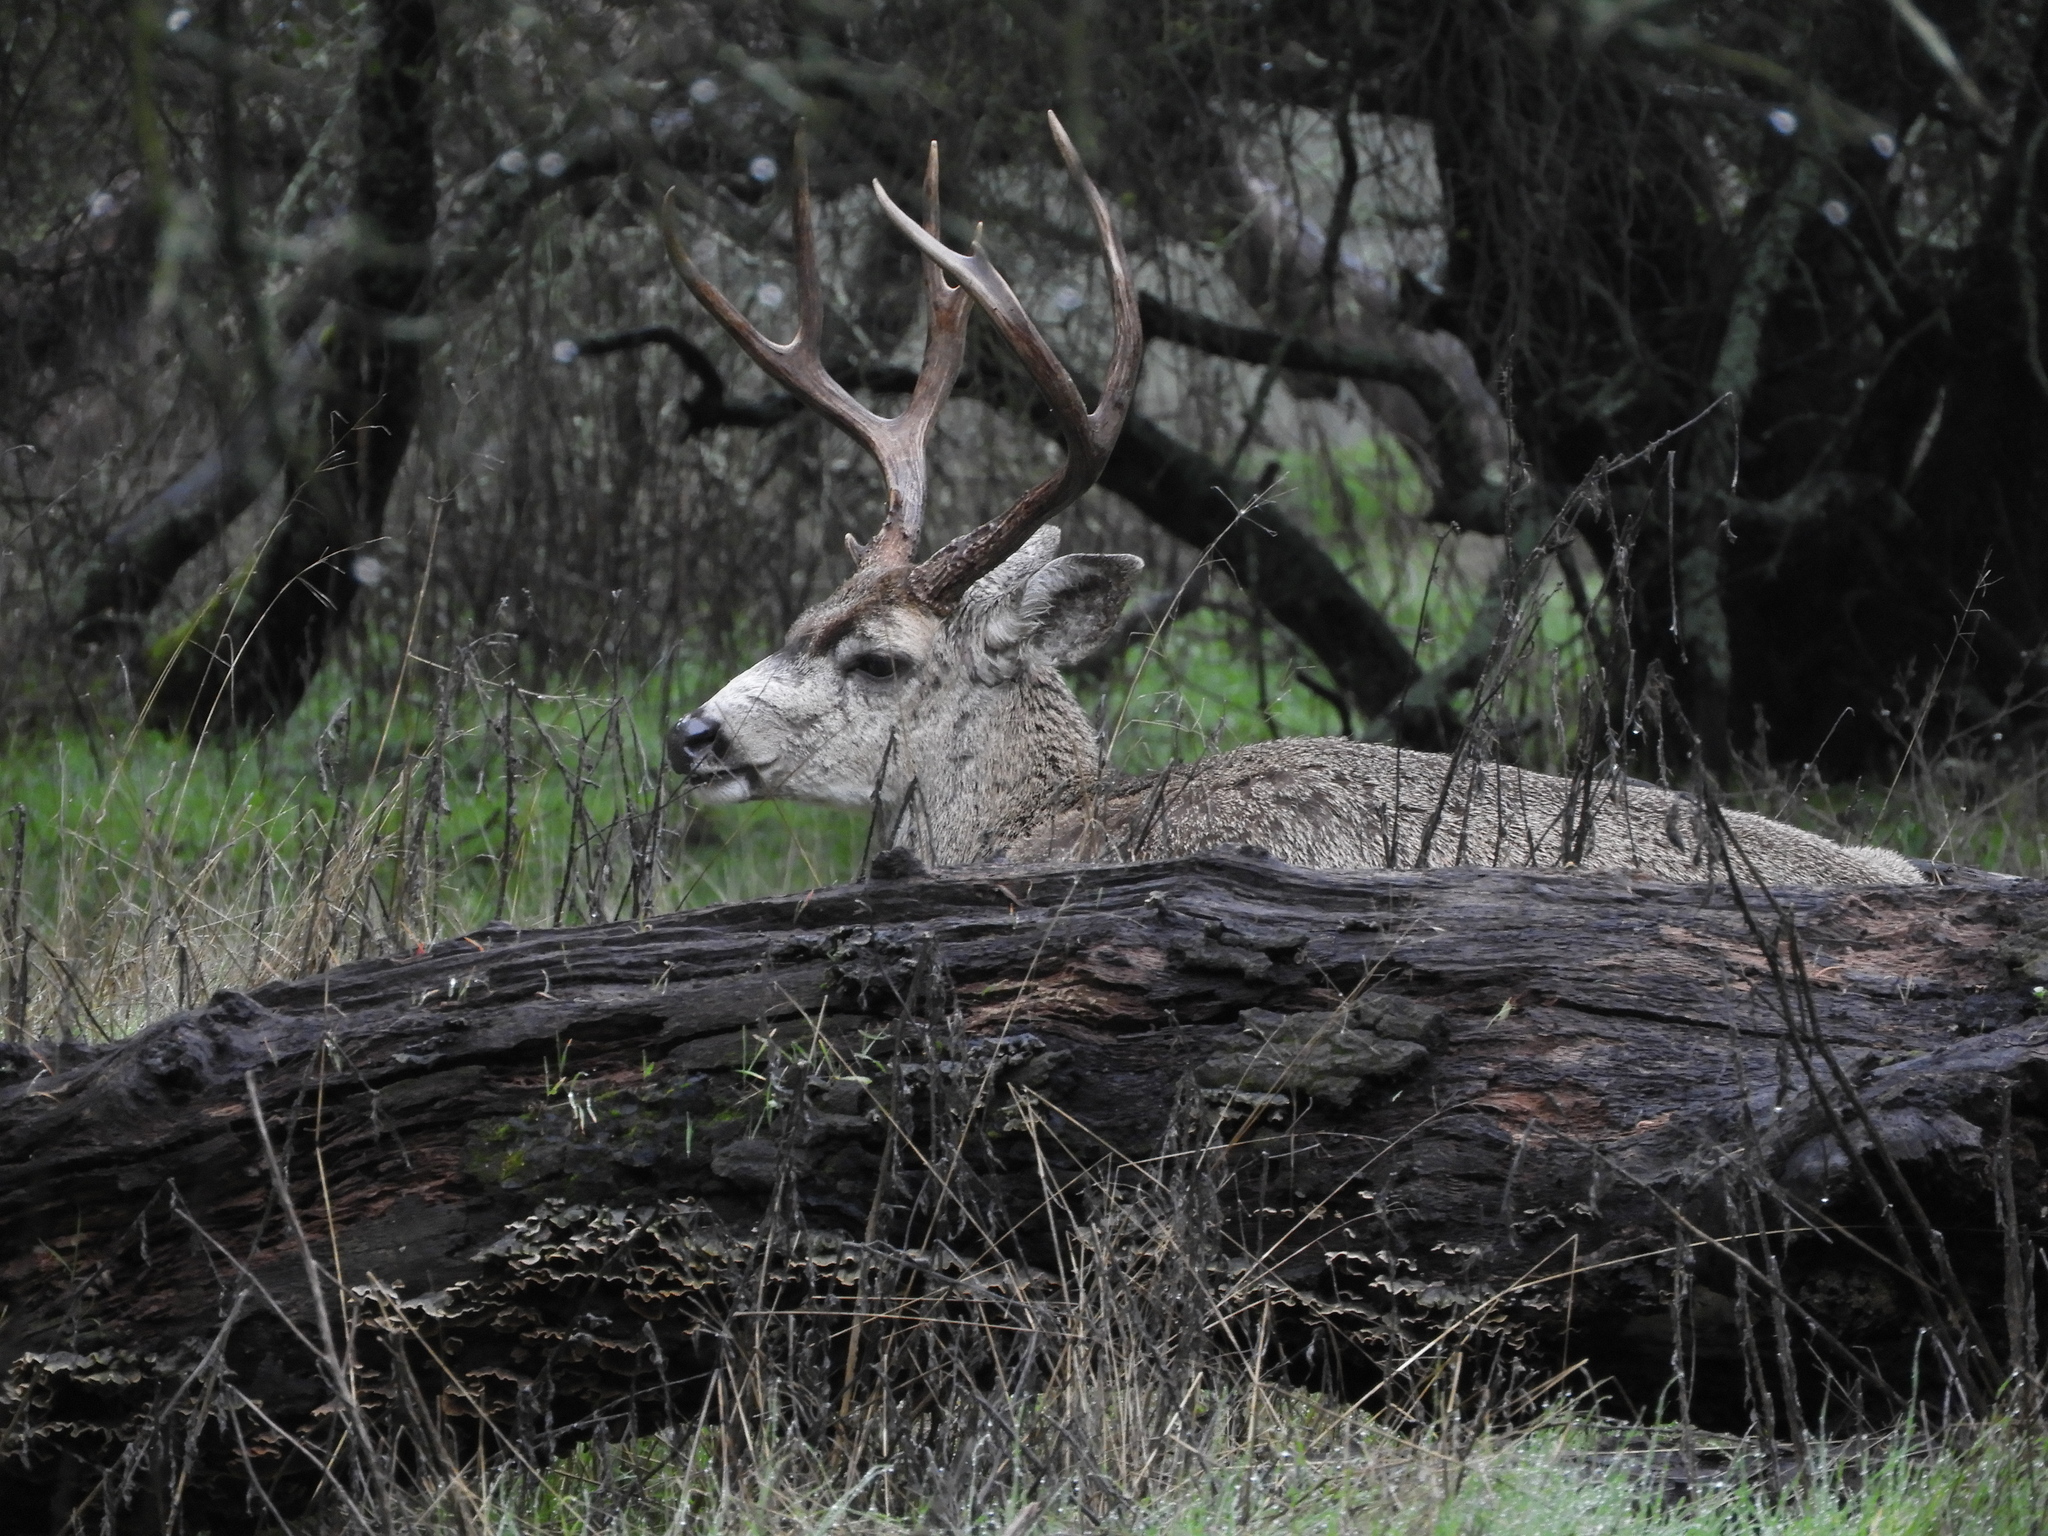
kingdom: Animalia
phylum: Chordata
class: Mammalia
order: Artiodactyla
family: Cervidae
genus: Odocoileus
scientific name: Odocoileus hemionus
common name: Mule deer
